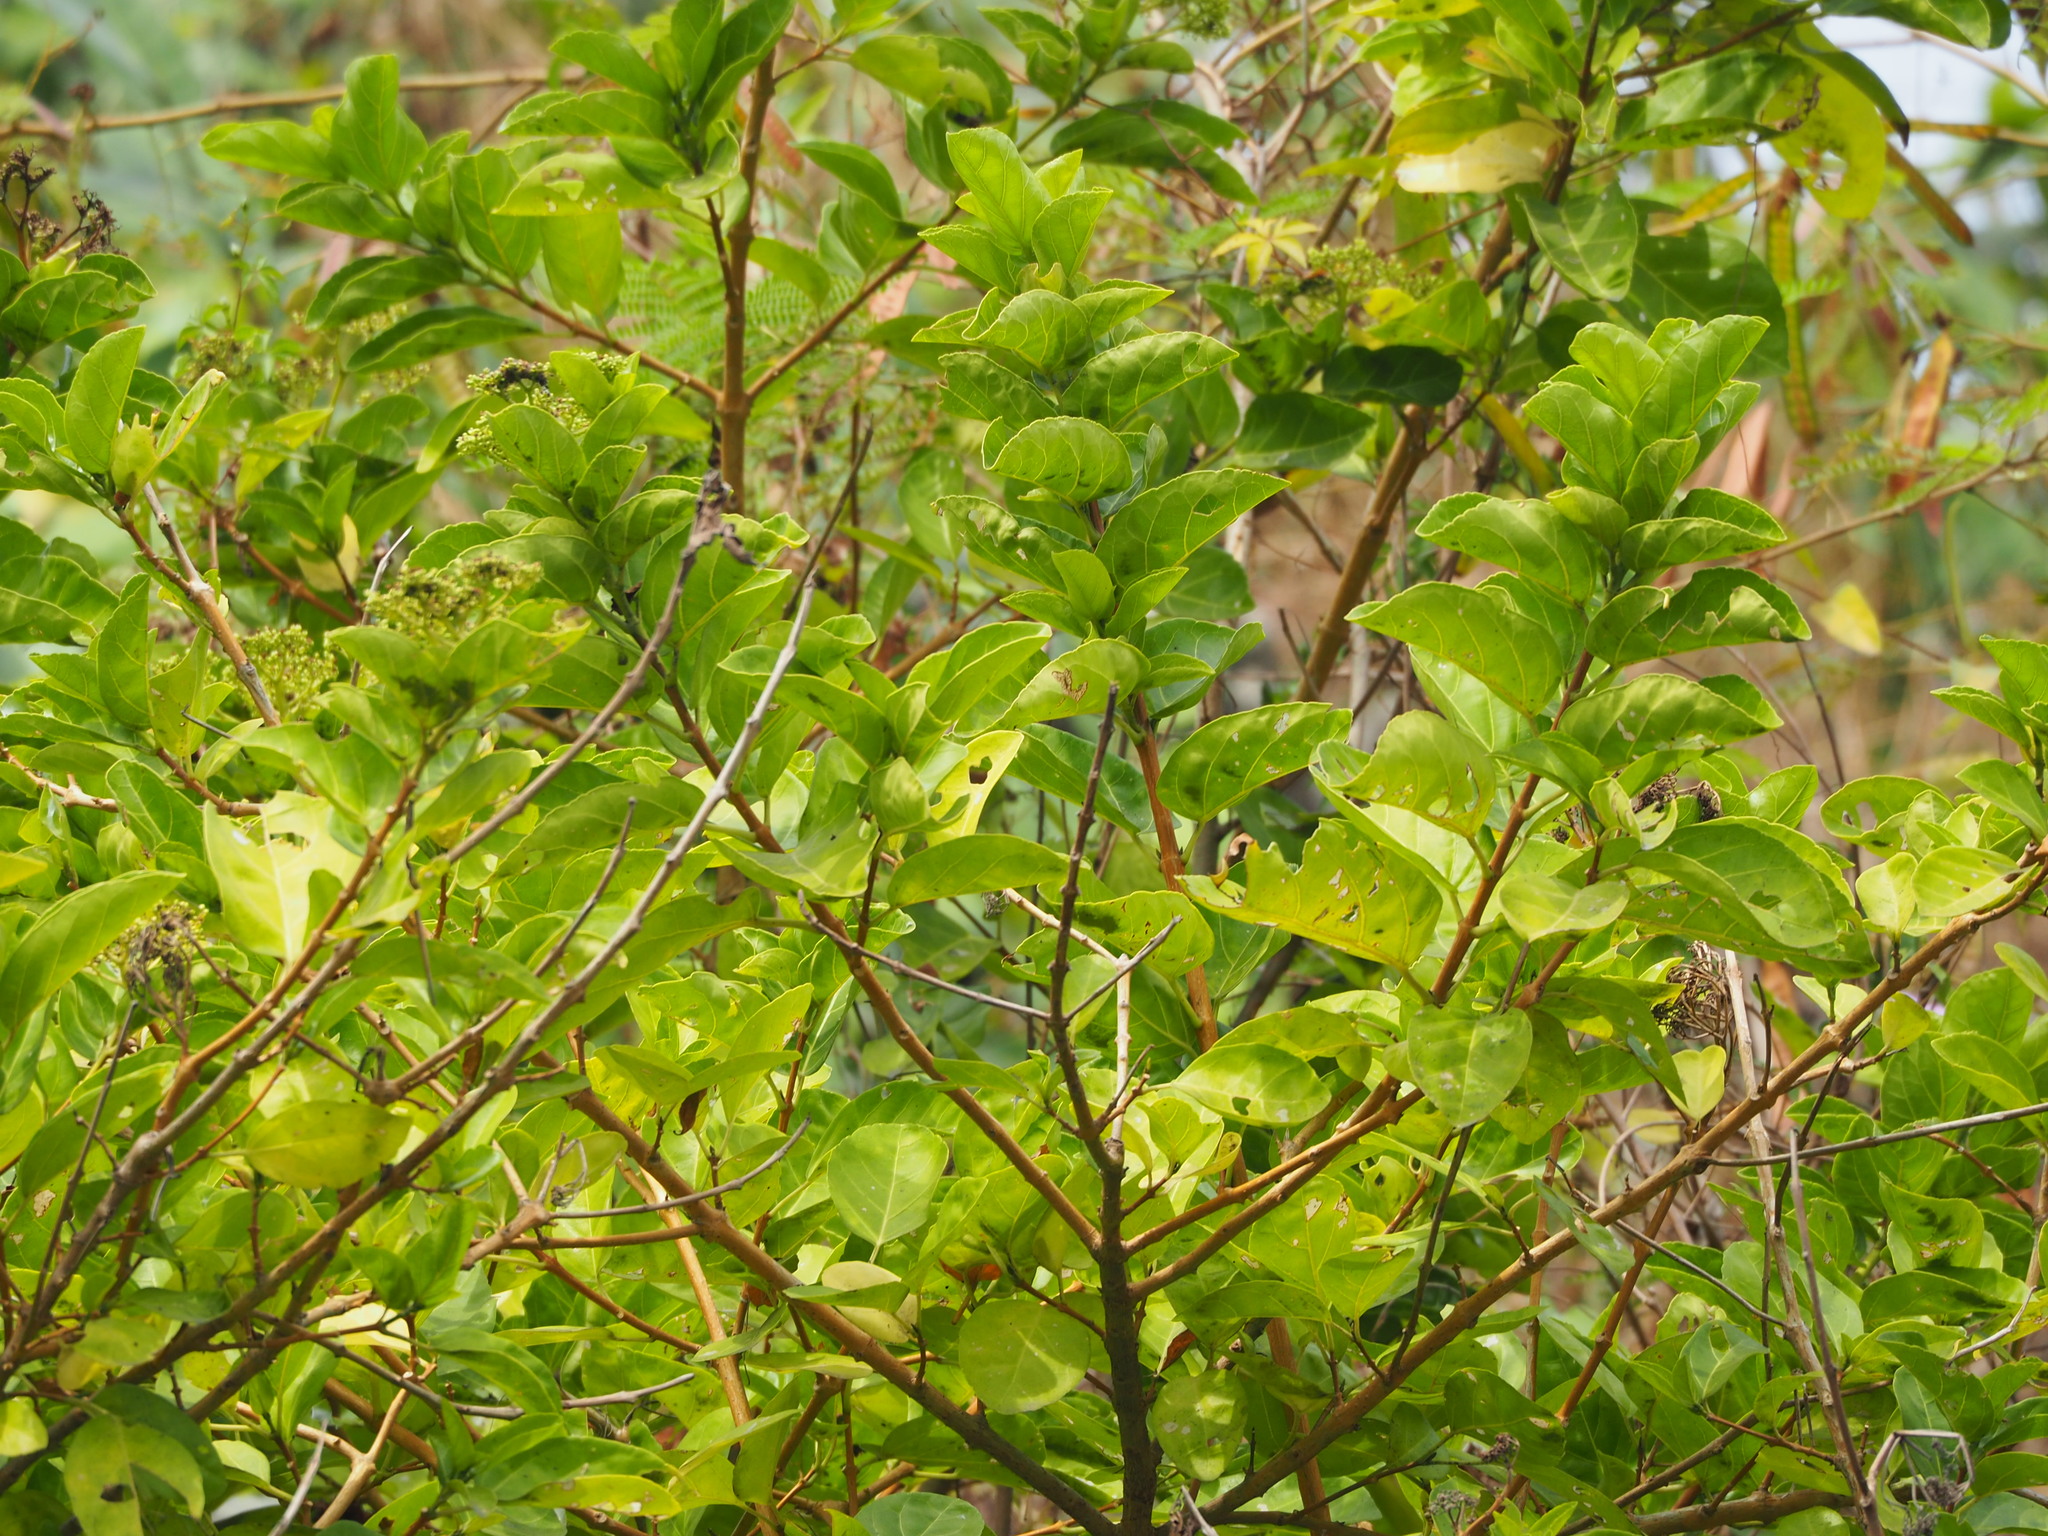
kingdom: Plantae
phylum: Tracheophyta
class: Magnoliopsida
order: Lamiales
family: Lamiaceae
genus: Premna
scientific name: Premna serratifolia
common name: Bastard guelder
